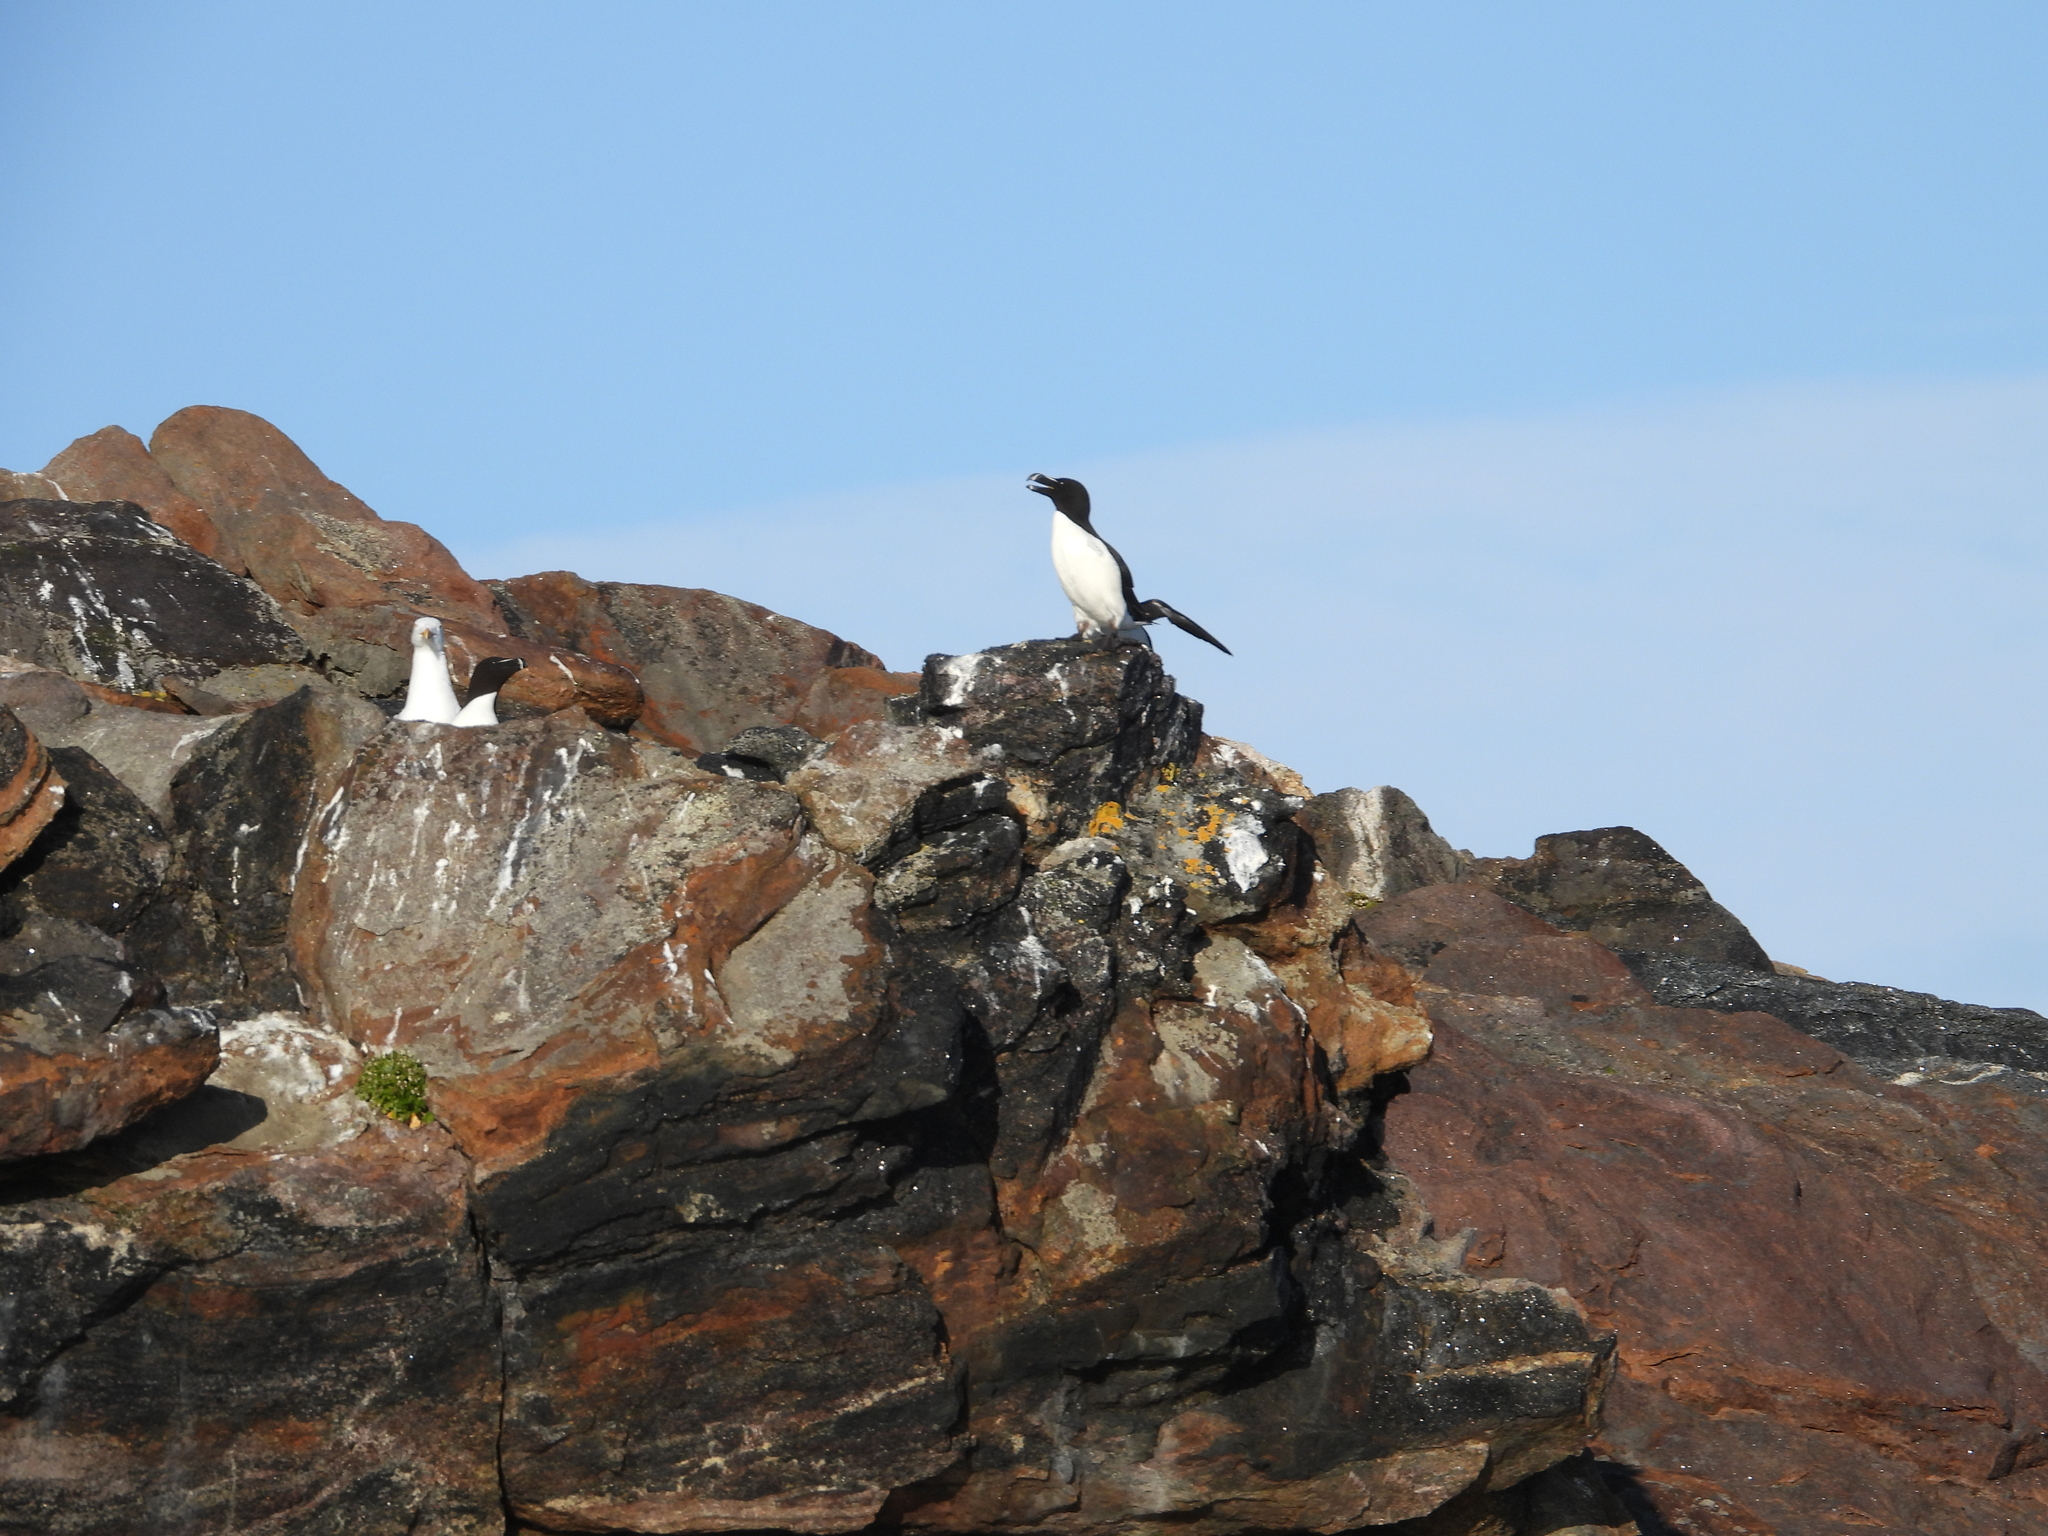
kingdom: Animalia
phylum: Chordata
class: Aves
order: Charadriiformes
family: Alcidae
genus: Alca
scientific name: Alca torda
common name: Razorbill
